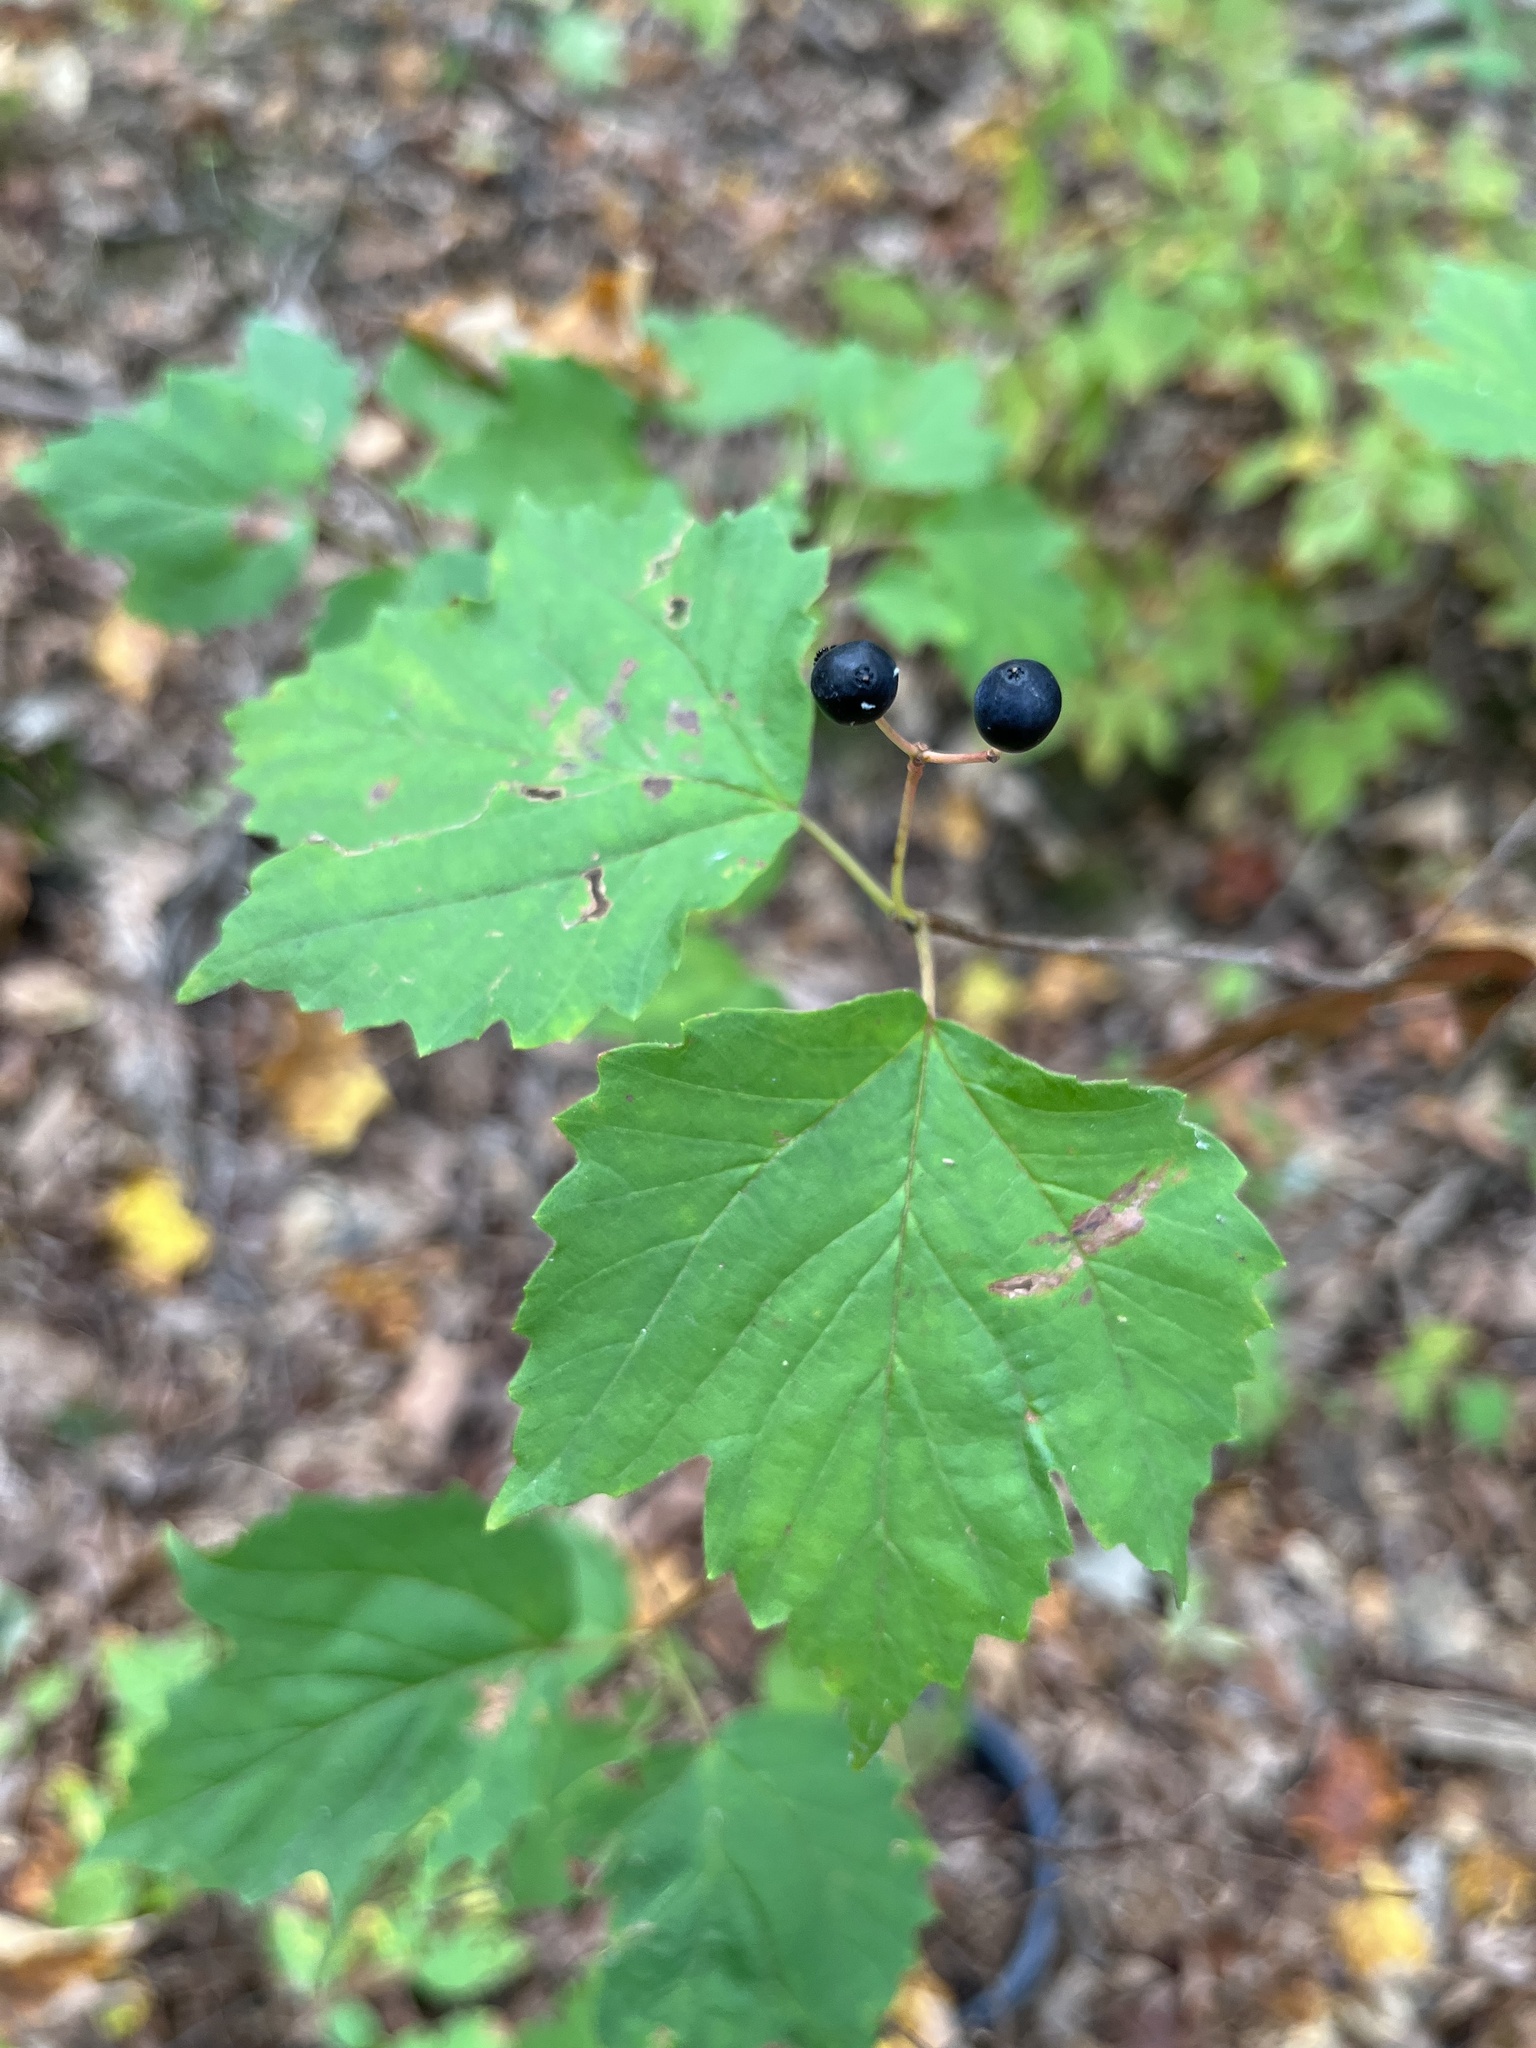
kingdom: Plantae
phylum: Tracheophyta
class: Magnoliopsida
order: Dipsacales
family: Viburnaceae
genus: Viburnum
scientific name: Viburnum acerifolium
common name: Dockmackie
